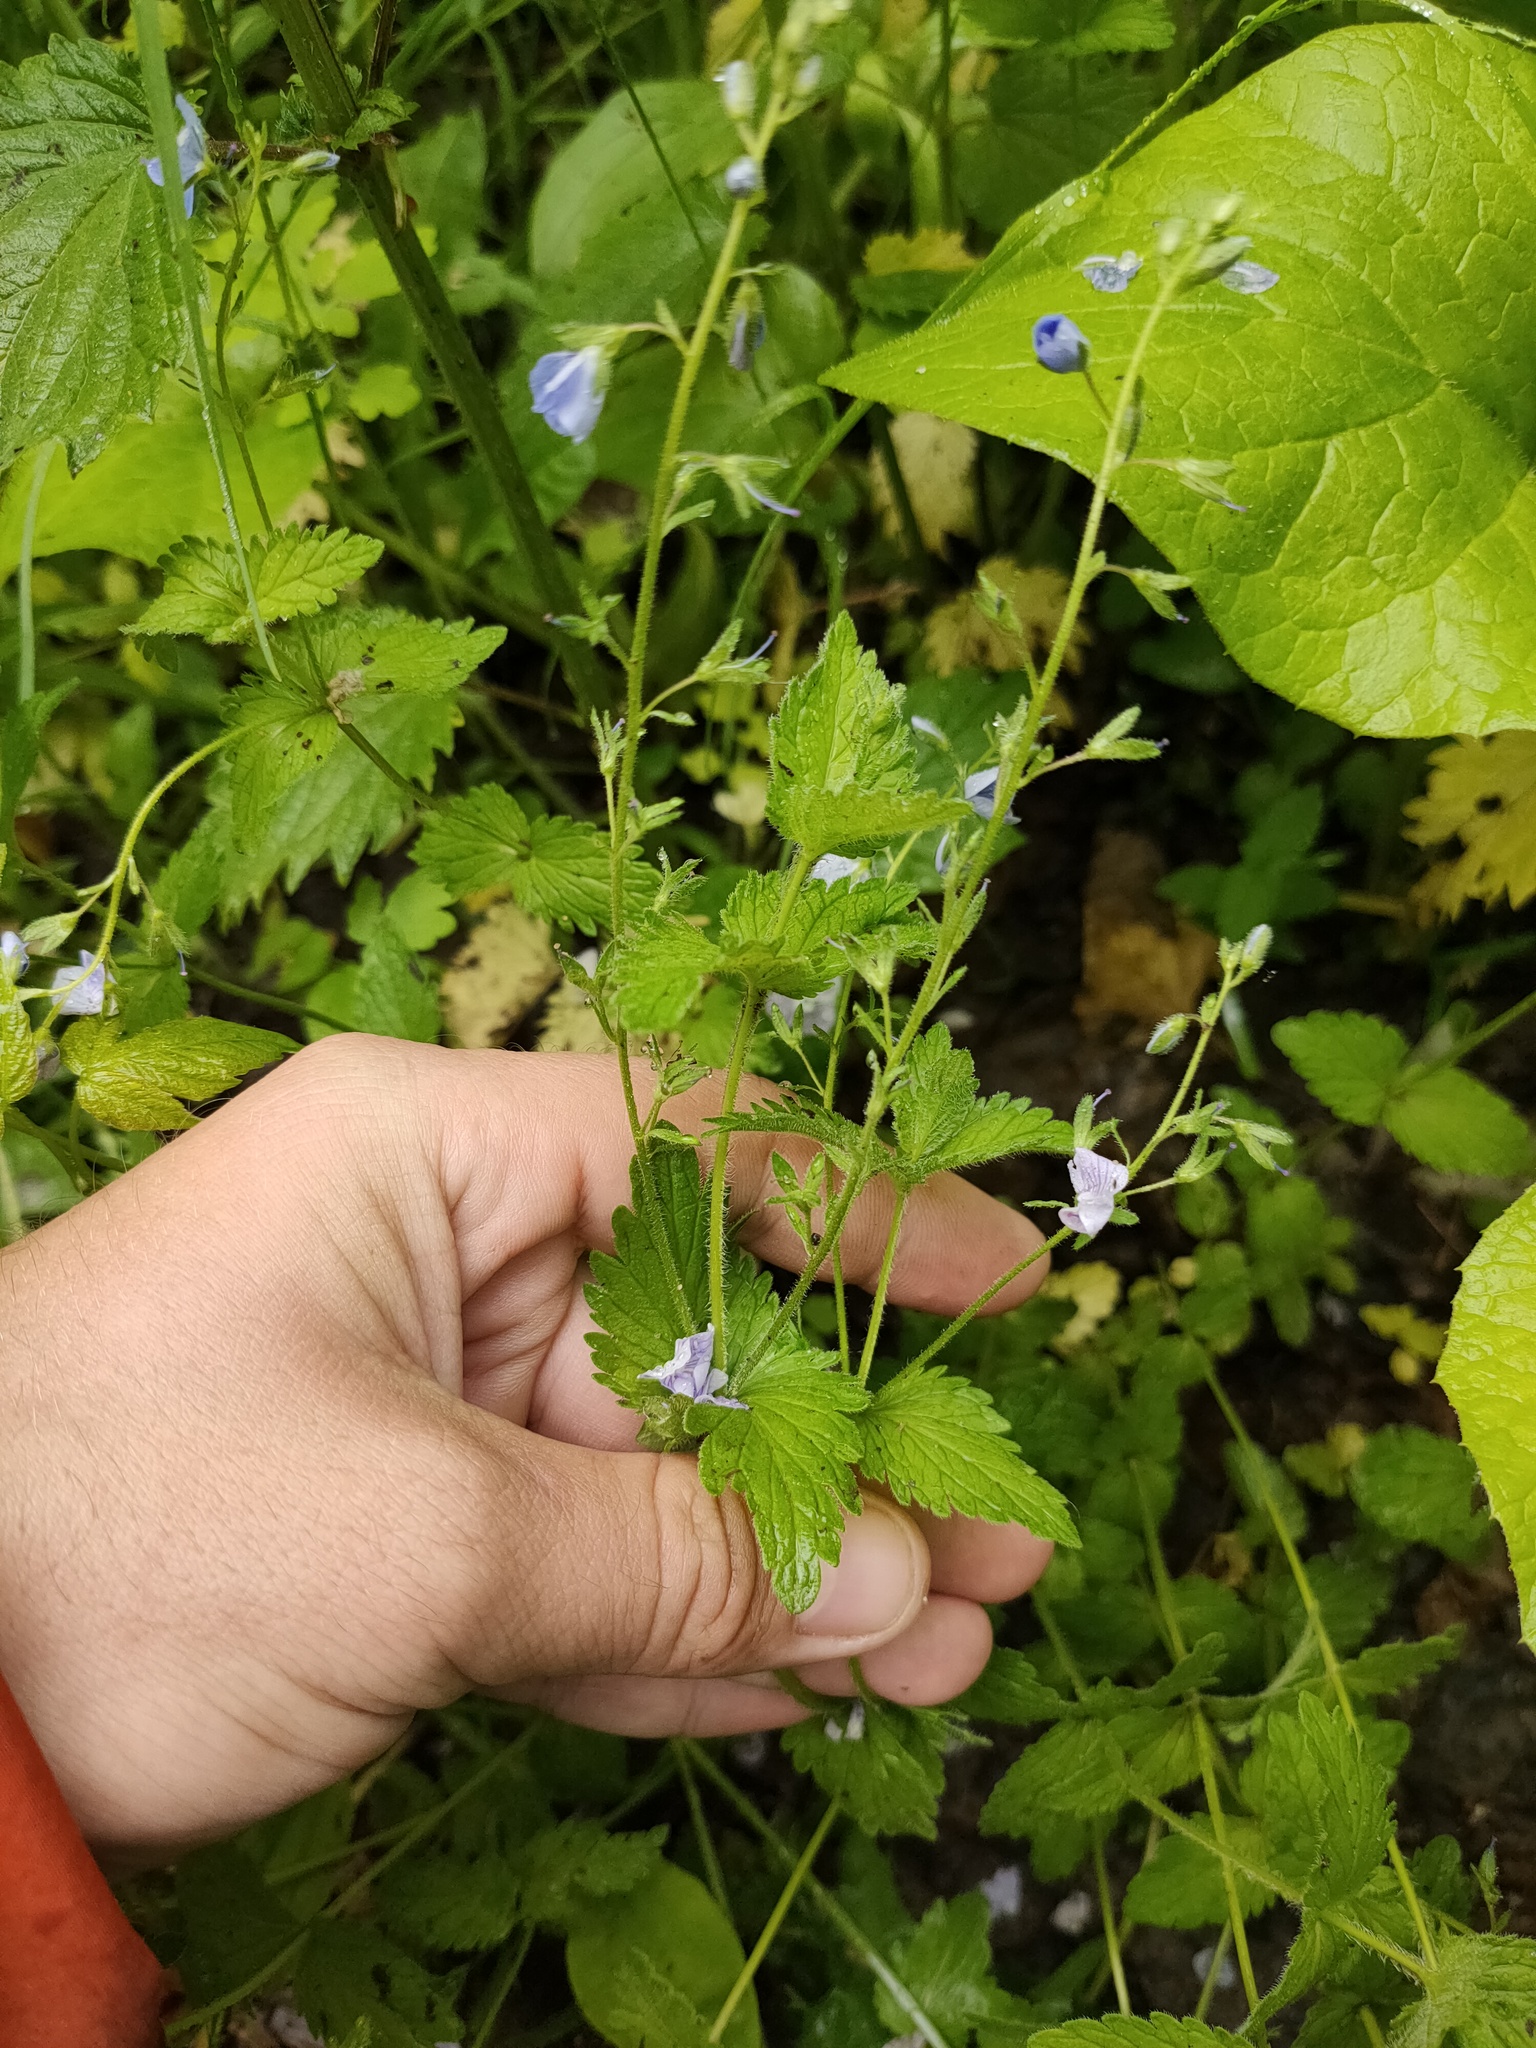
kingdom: Plantae
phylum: Tracheophyta
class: Magnoliopsida
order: Lamiales
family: Plantaginaceae
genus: Veronica
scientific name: Veronica chamaedrys
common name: Germander speedwell
